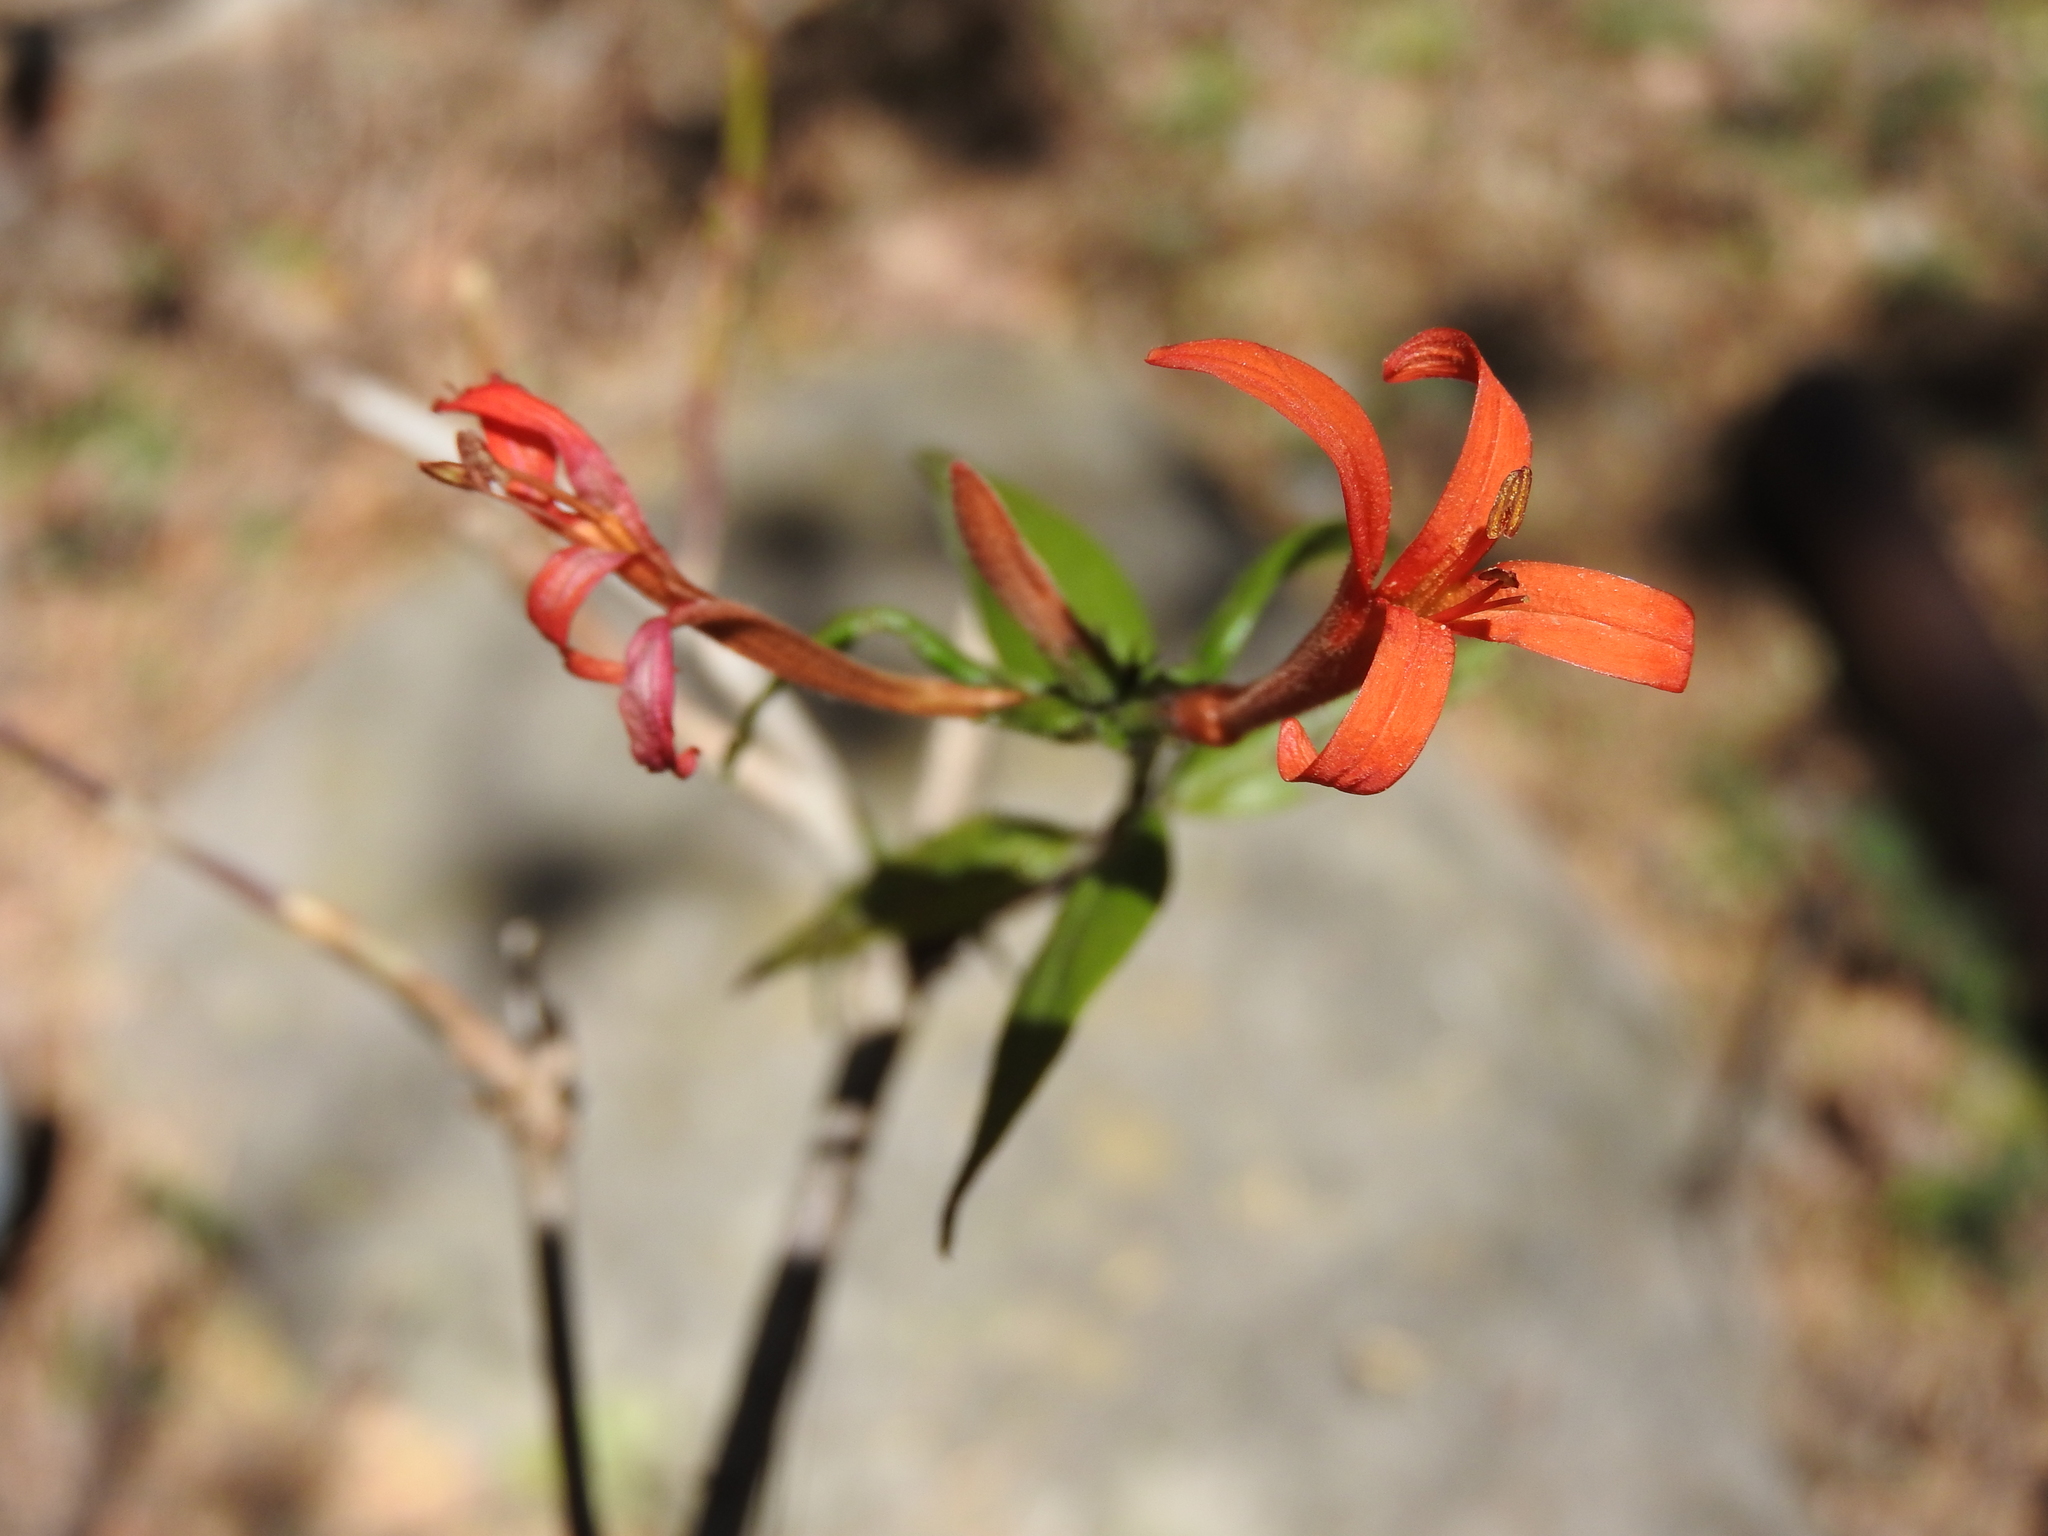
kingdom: Plantae
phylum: Tracheophyta
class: Magnoliopsida
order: Lamiales
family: Acanthaceae
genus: Anisacanthus
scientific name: Anisacanthus quadrifidus
